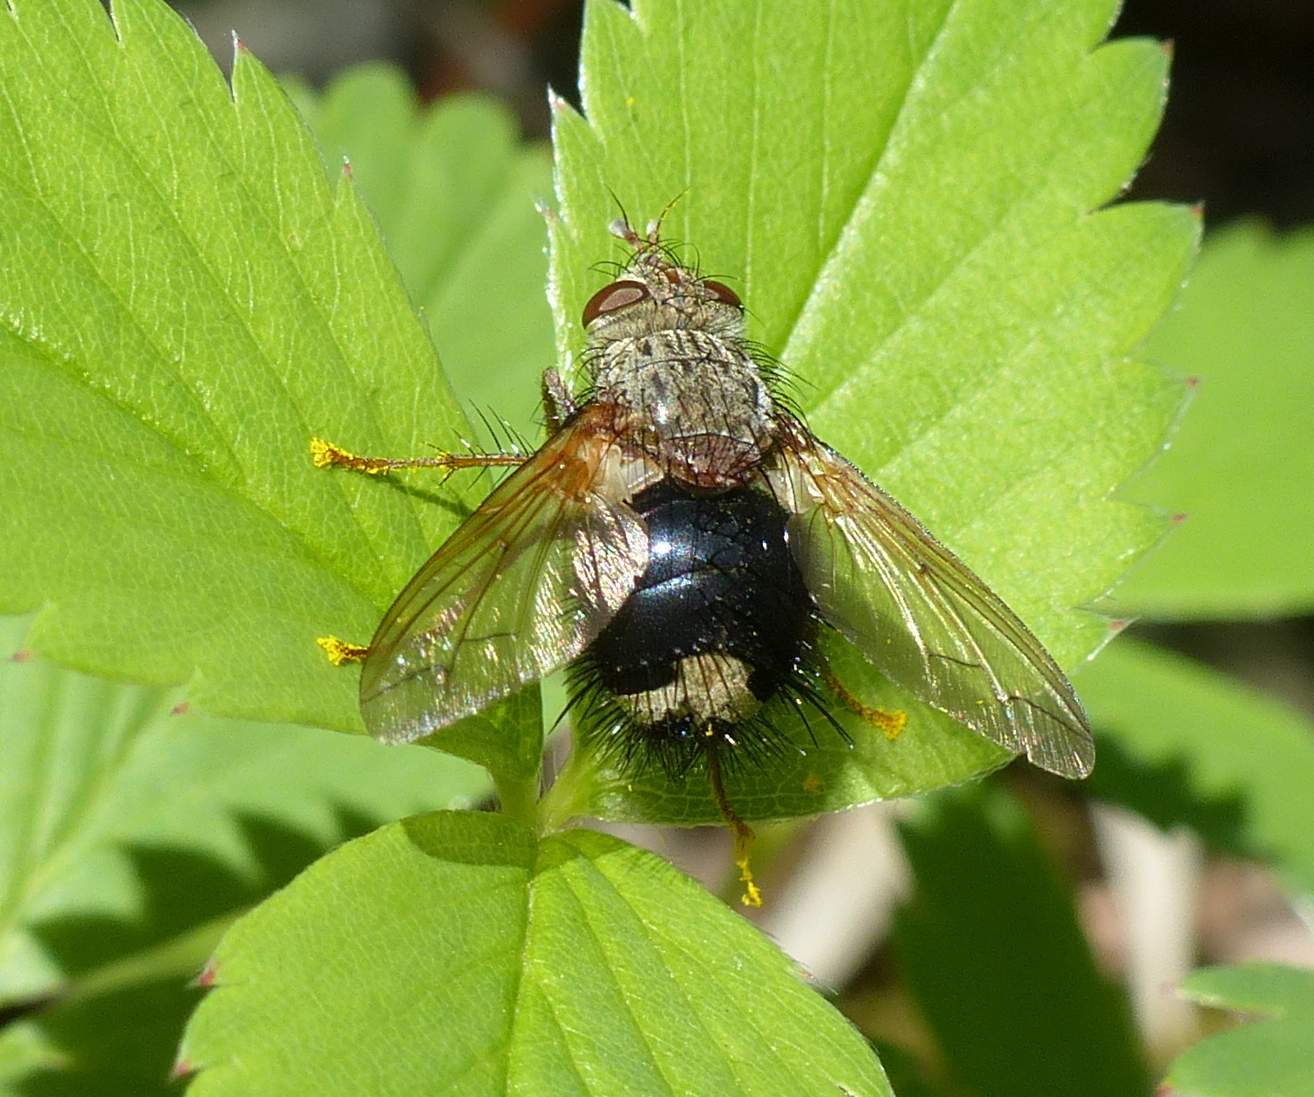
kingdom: Animalia
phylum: Arthropoda
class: Insecta
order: Diptera
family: Tachinidae
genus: Epalpus
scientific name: Epalpus signifer
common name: Early tachinid fly
